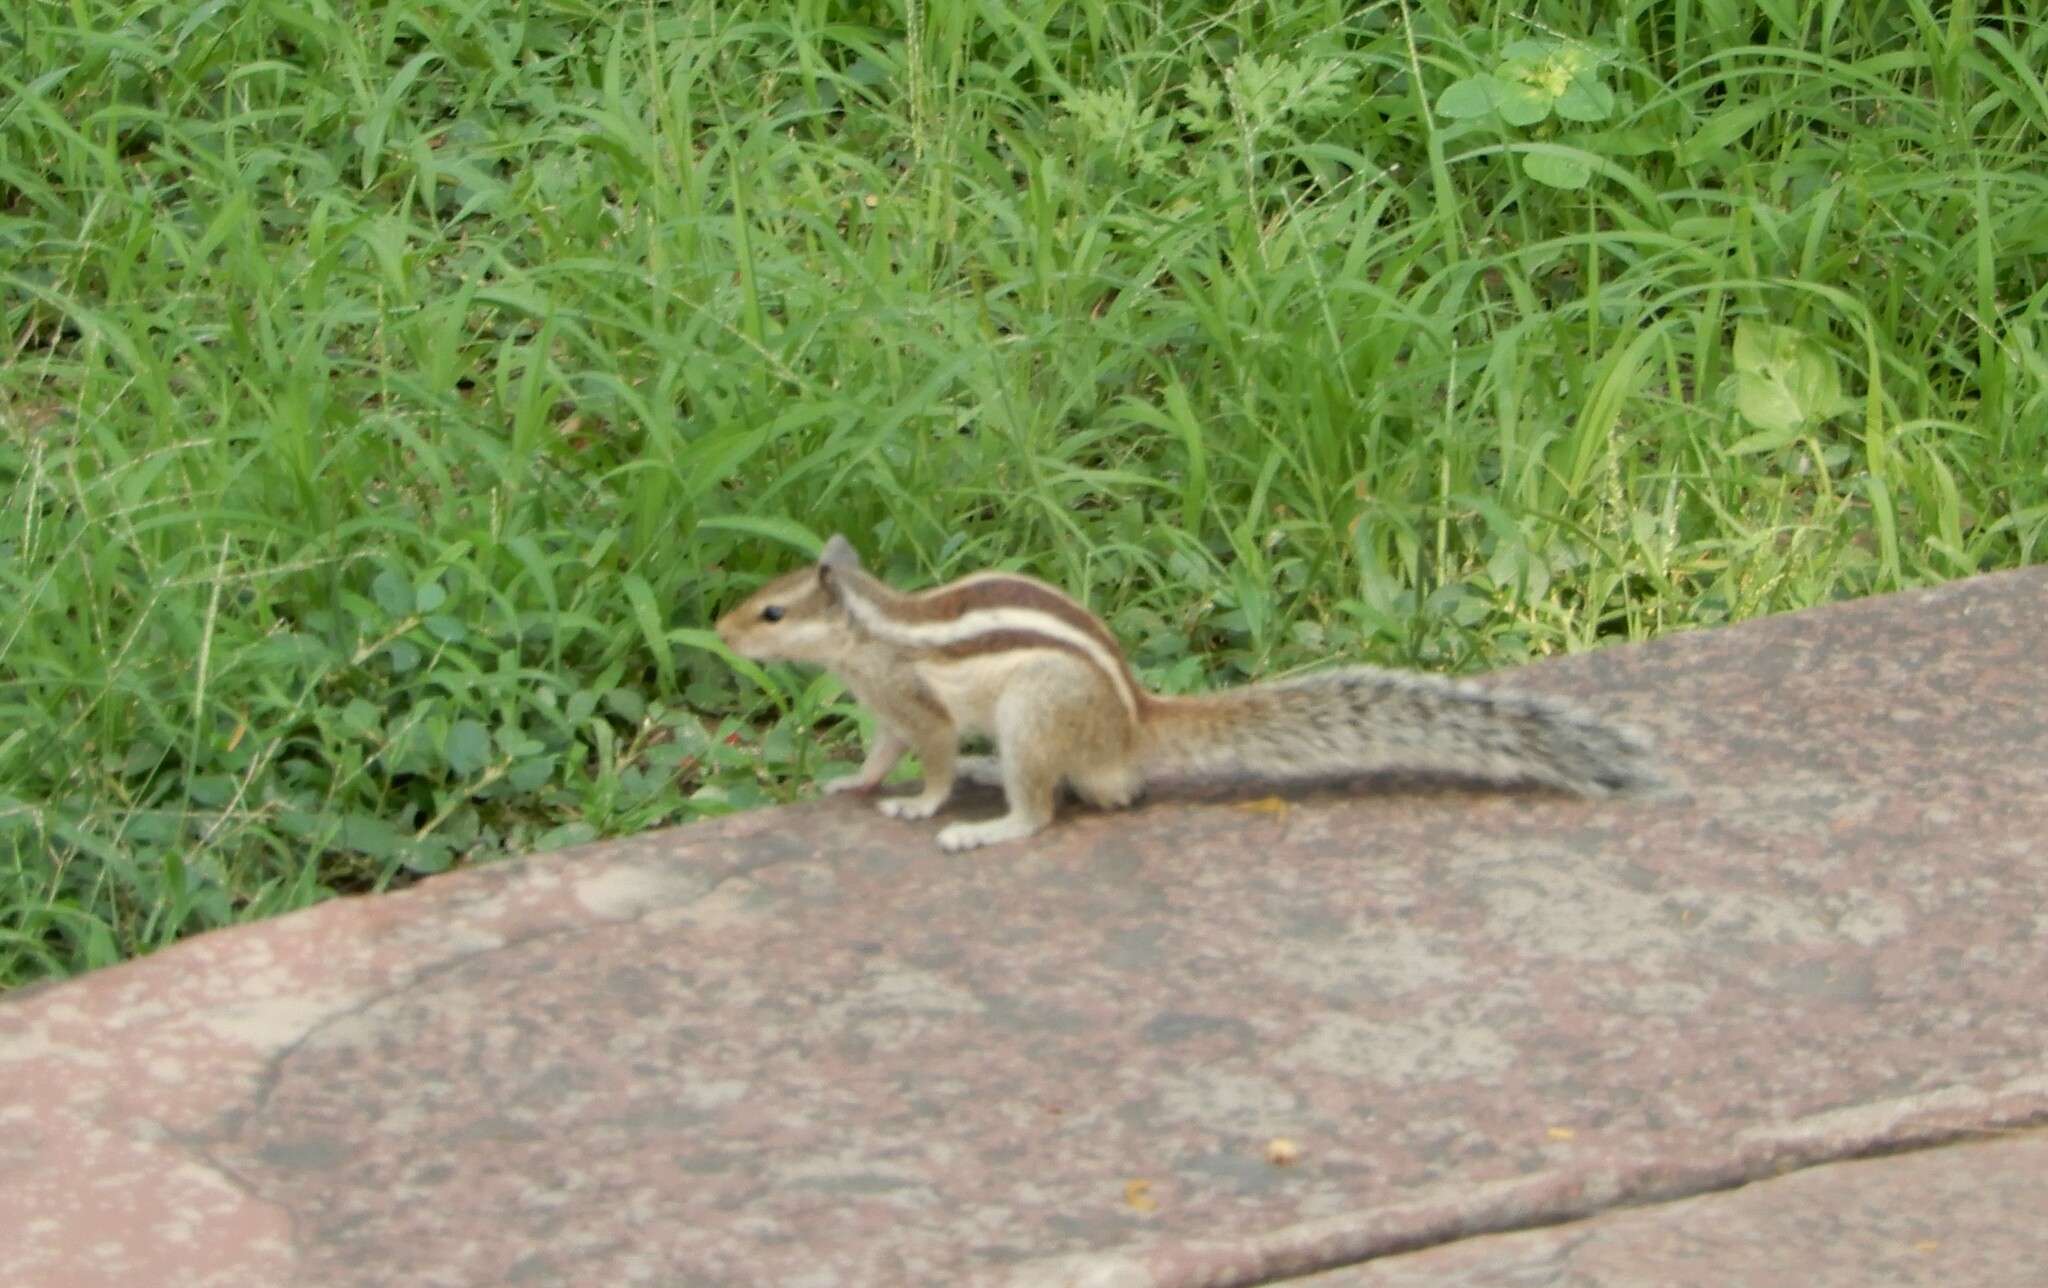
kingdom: Animalia
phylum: Chordata
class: Mammalia
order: Rodentia
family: Sciuridae
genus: Funambulus
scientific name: Funambulus pennantii
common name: Northern palm squirrel
